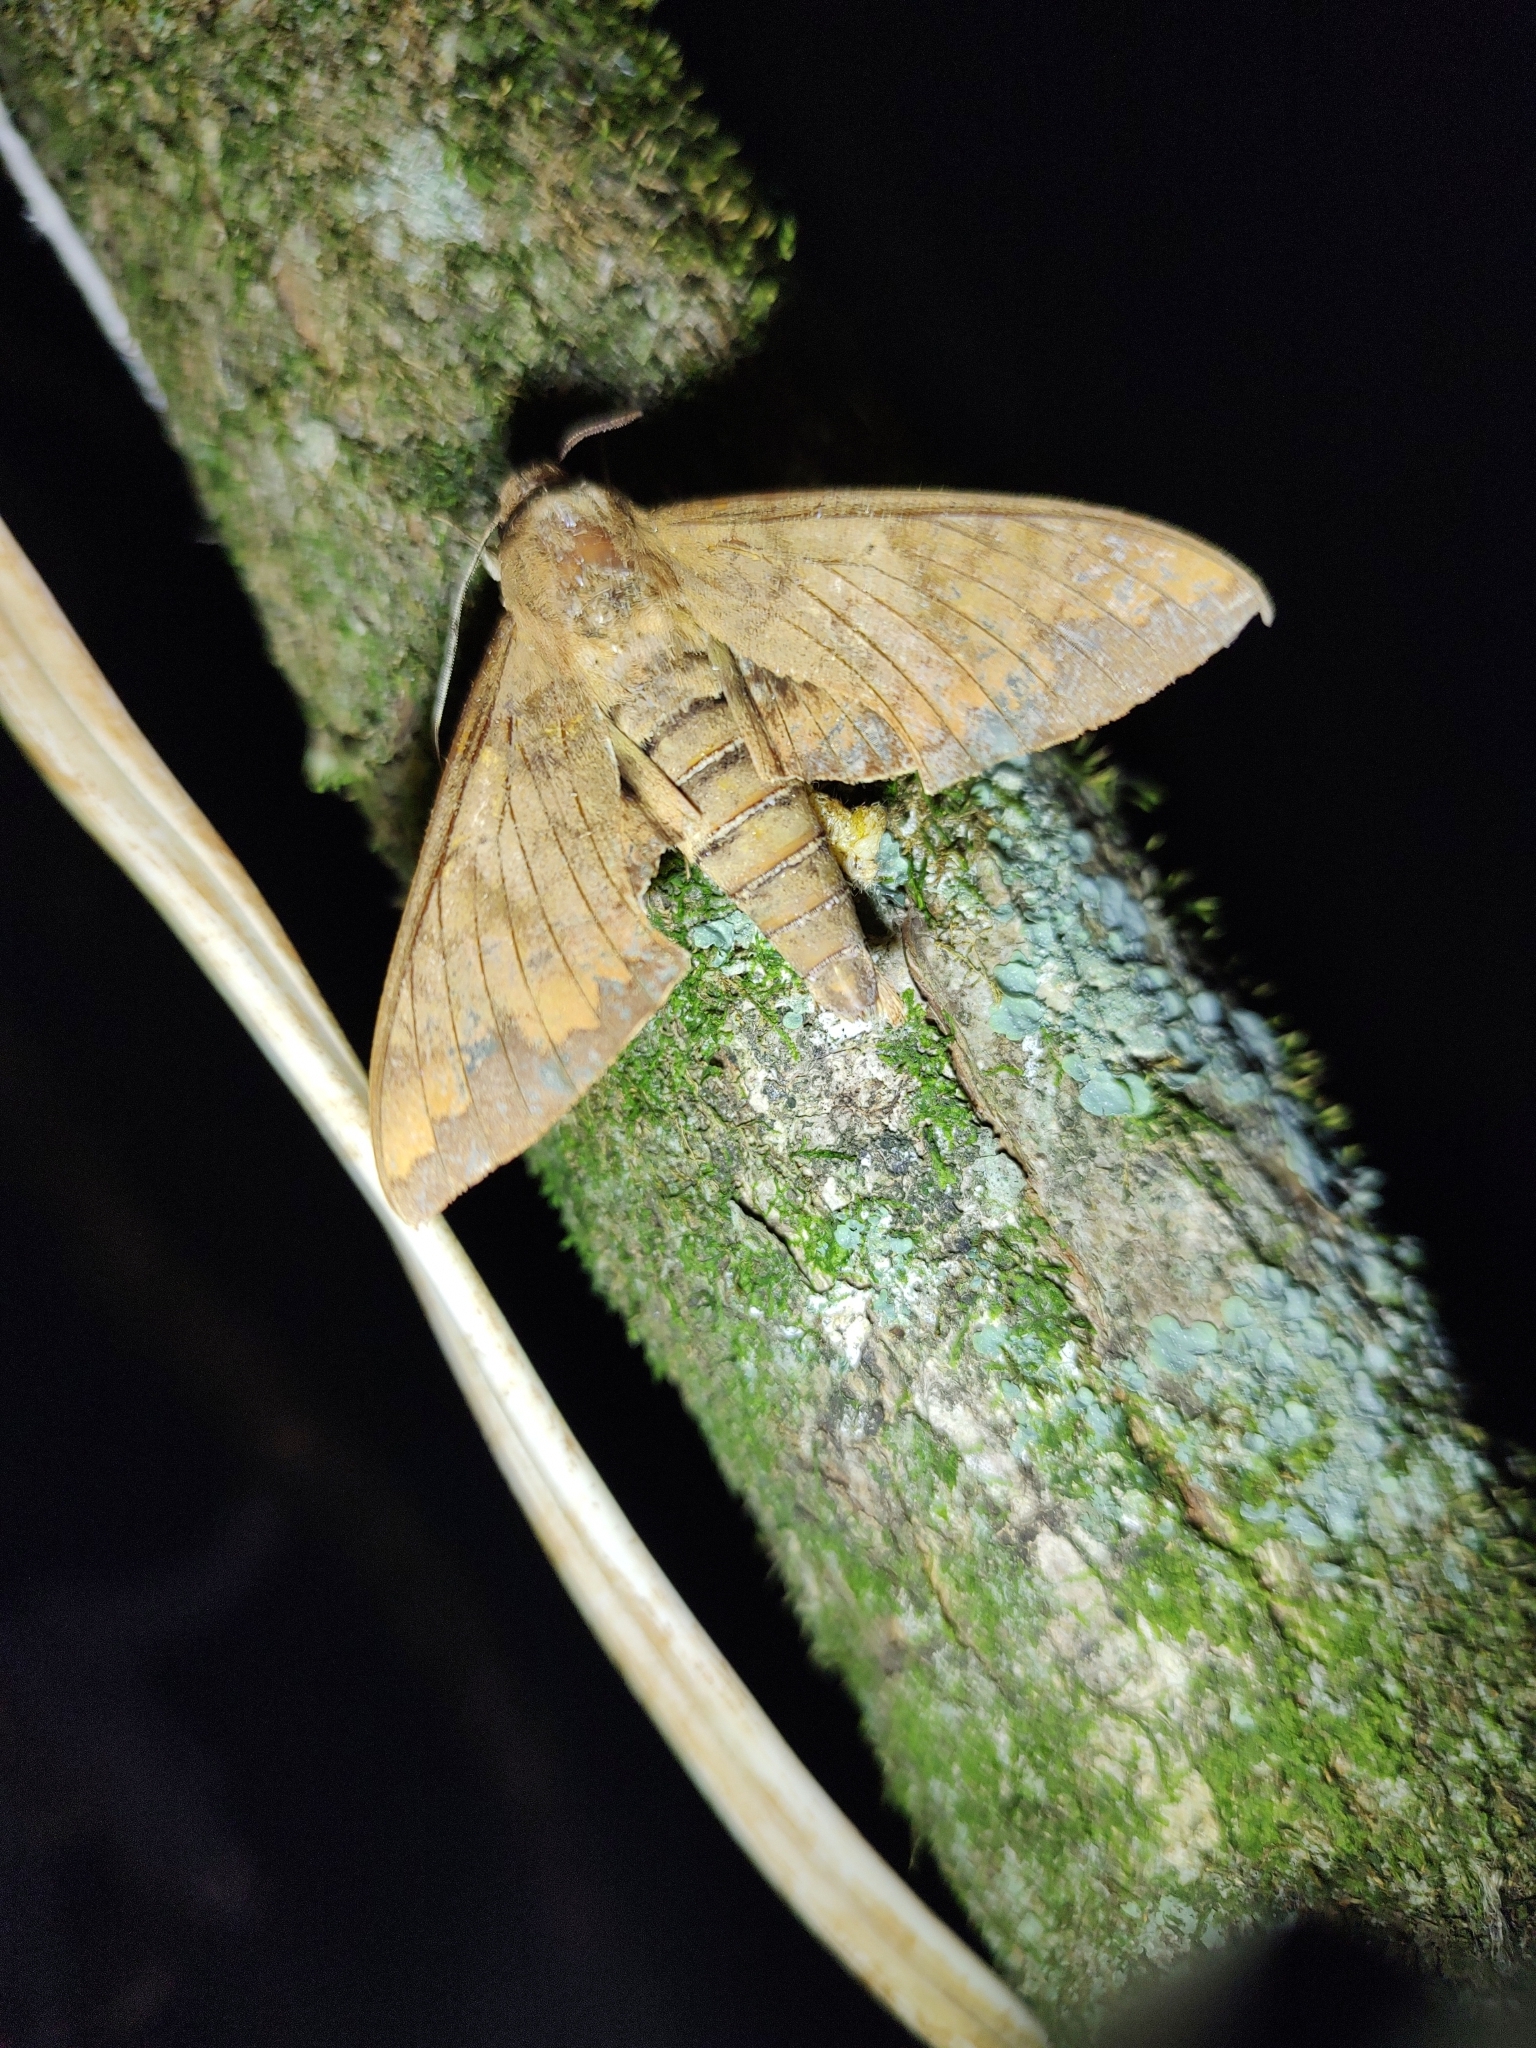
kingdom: Animalia
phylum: Arthropoda
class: Insecta
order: Lepidoptera
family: Sphingidae
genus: Pachylioides
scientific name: Pachylioides resumens
